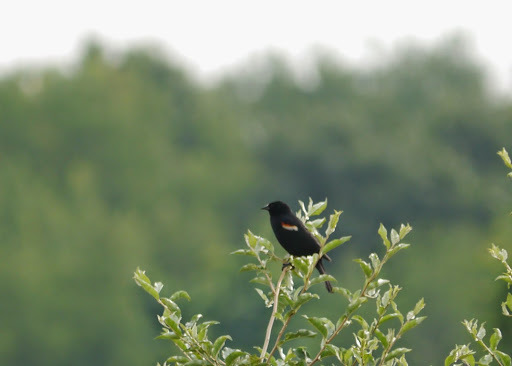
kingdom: Animalia
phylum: Chordata
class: Aves
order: Passeriformes
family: Icteridae
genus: Agelaius
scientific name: Agelaius phoeniceus
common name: Red-winged blackbird
